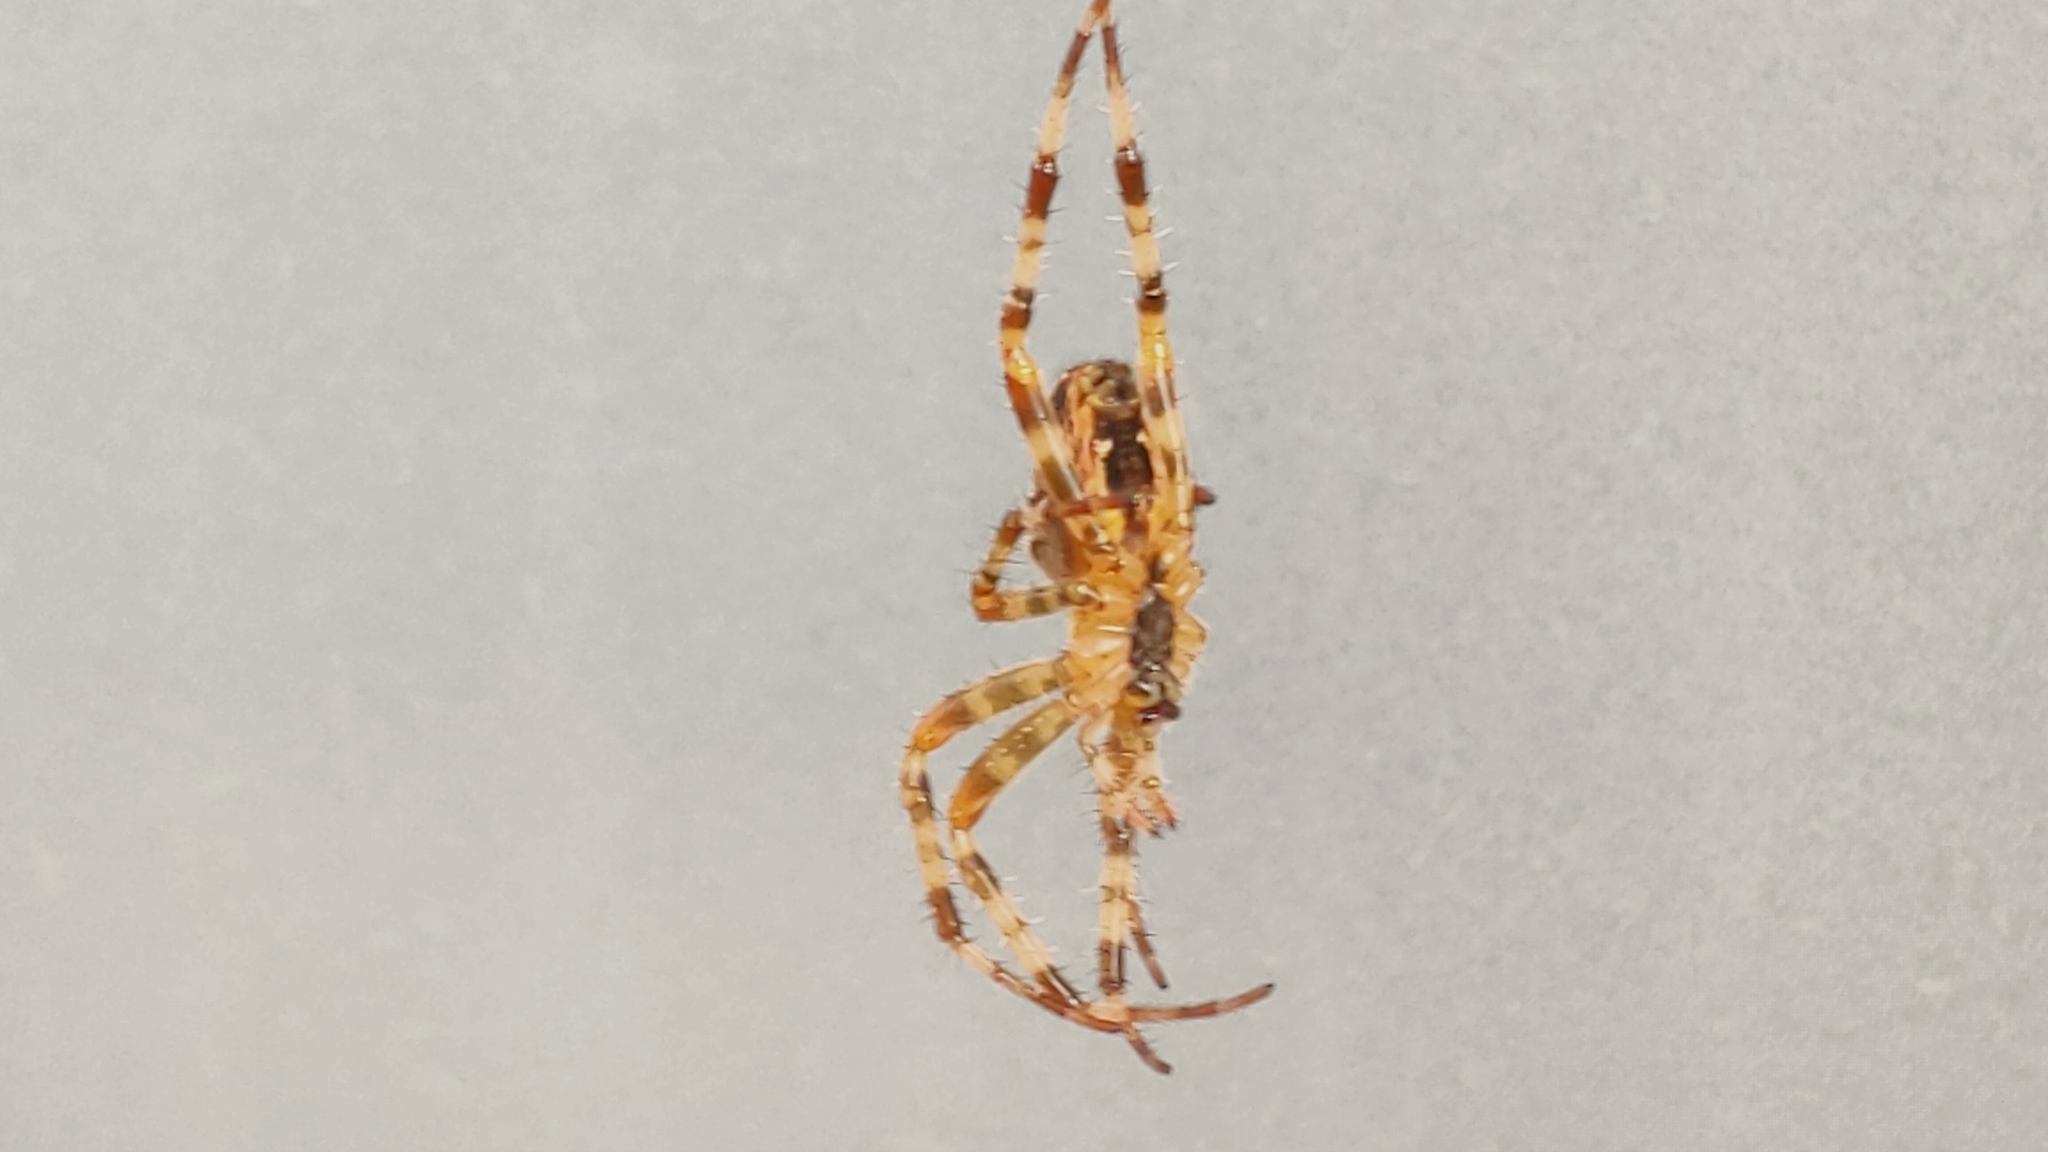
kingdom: Animalia
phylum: Arthropoda
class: Arachnida
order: Araneae
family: Araneidae
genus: Araneus
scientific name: Araneus diadematus
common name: Cross orbweaver
